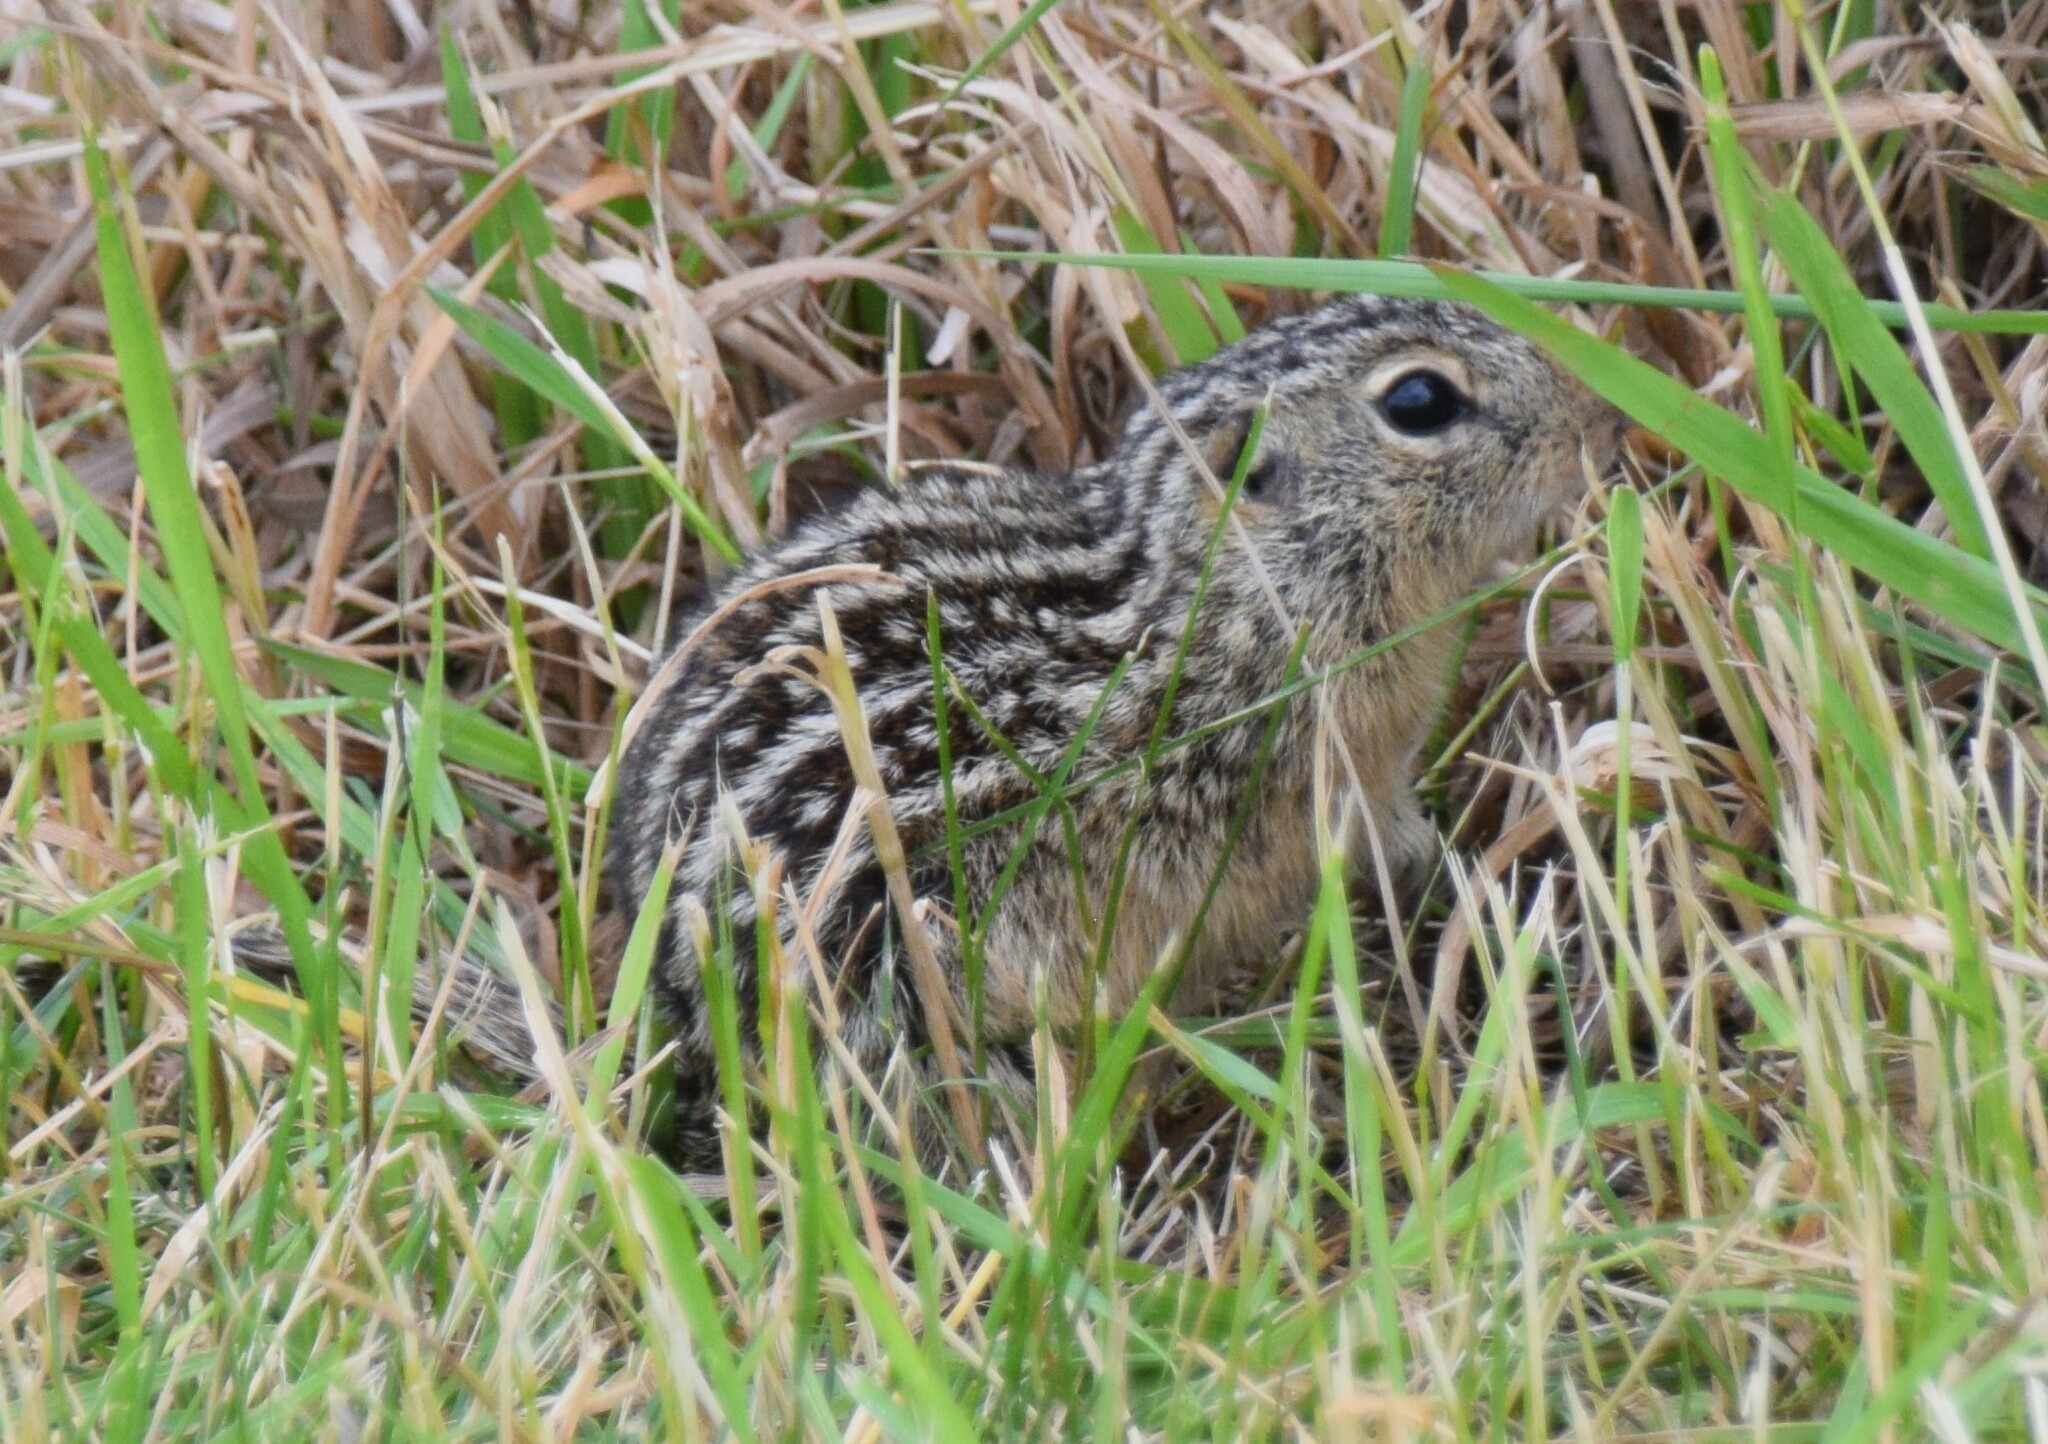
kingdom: Animalia
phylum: Chordata
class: Mammalia
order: Rodentia
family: Sciuridae
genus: Ictidomys
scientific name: Ictidomys tridecemlineatus
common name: Thirteen-lined ground squirrel
